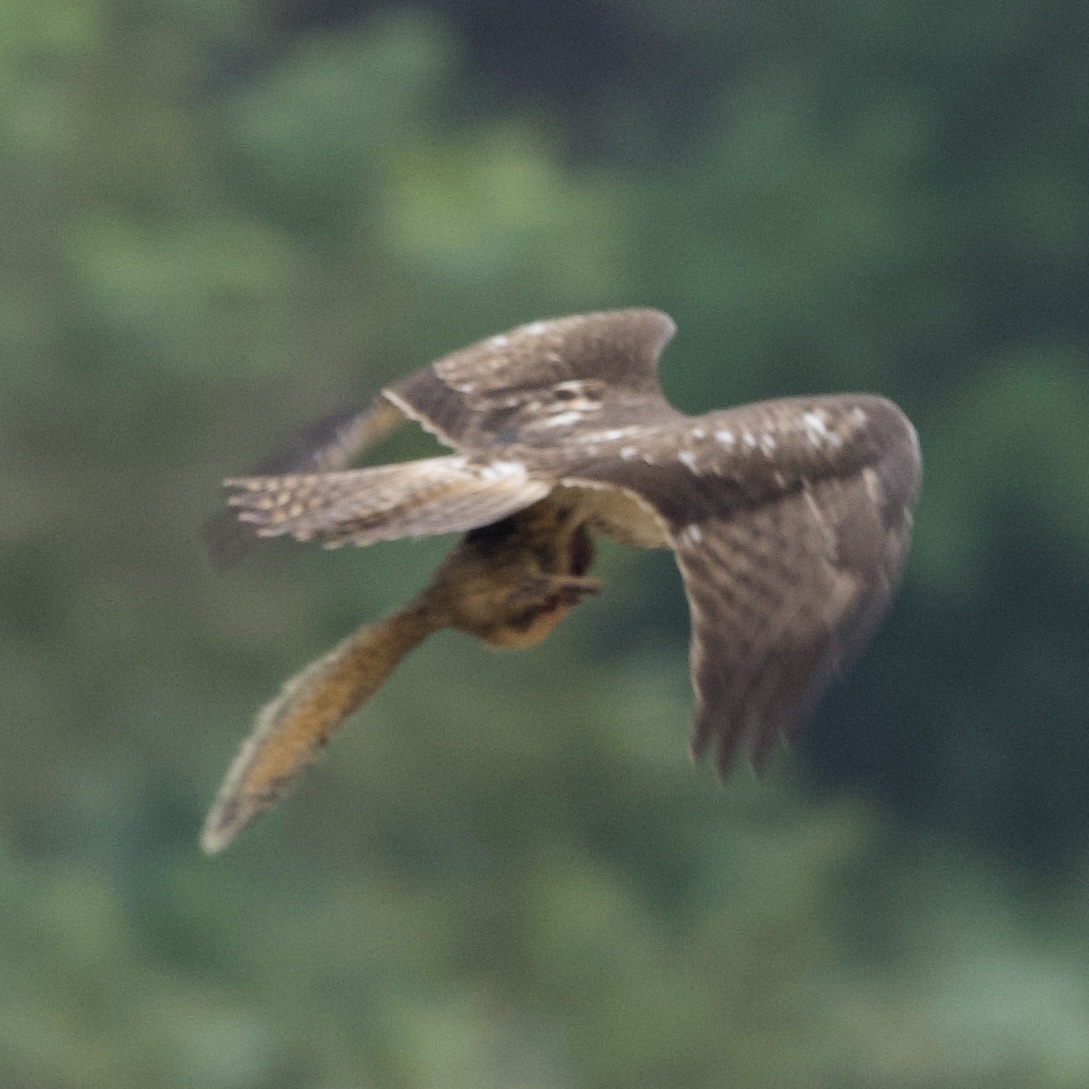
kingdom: Animalia
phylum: Chordata
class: Aves
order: Accipitriformes
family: Accipitridae
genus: Buteo
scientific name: Buteo jamaicensis
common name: Red-tailed hawk
